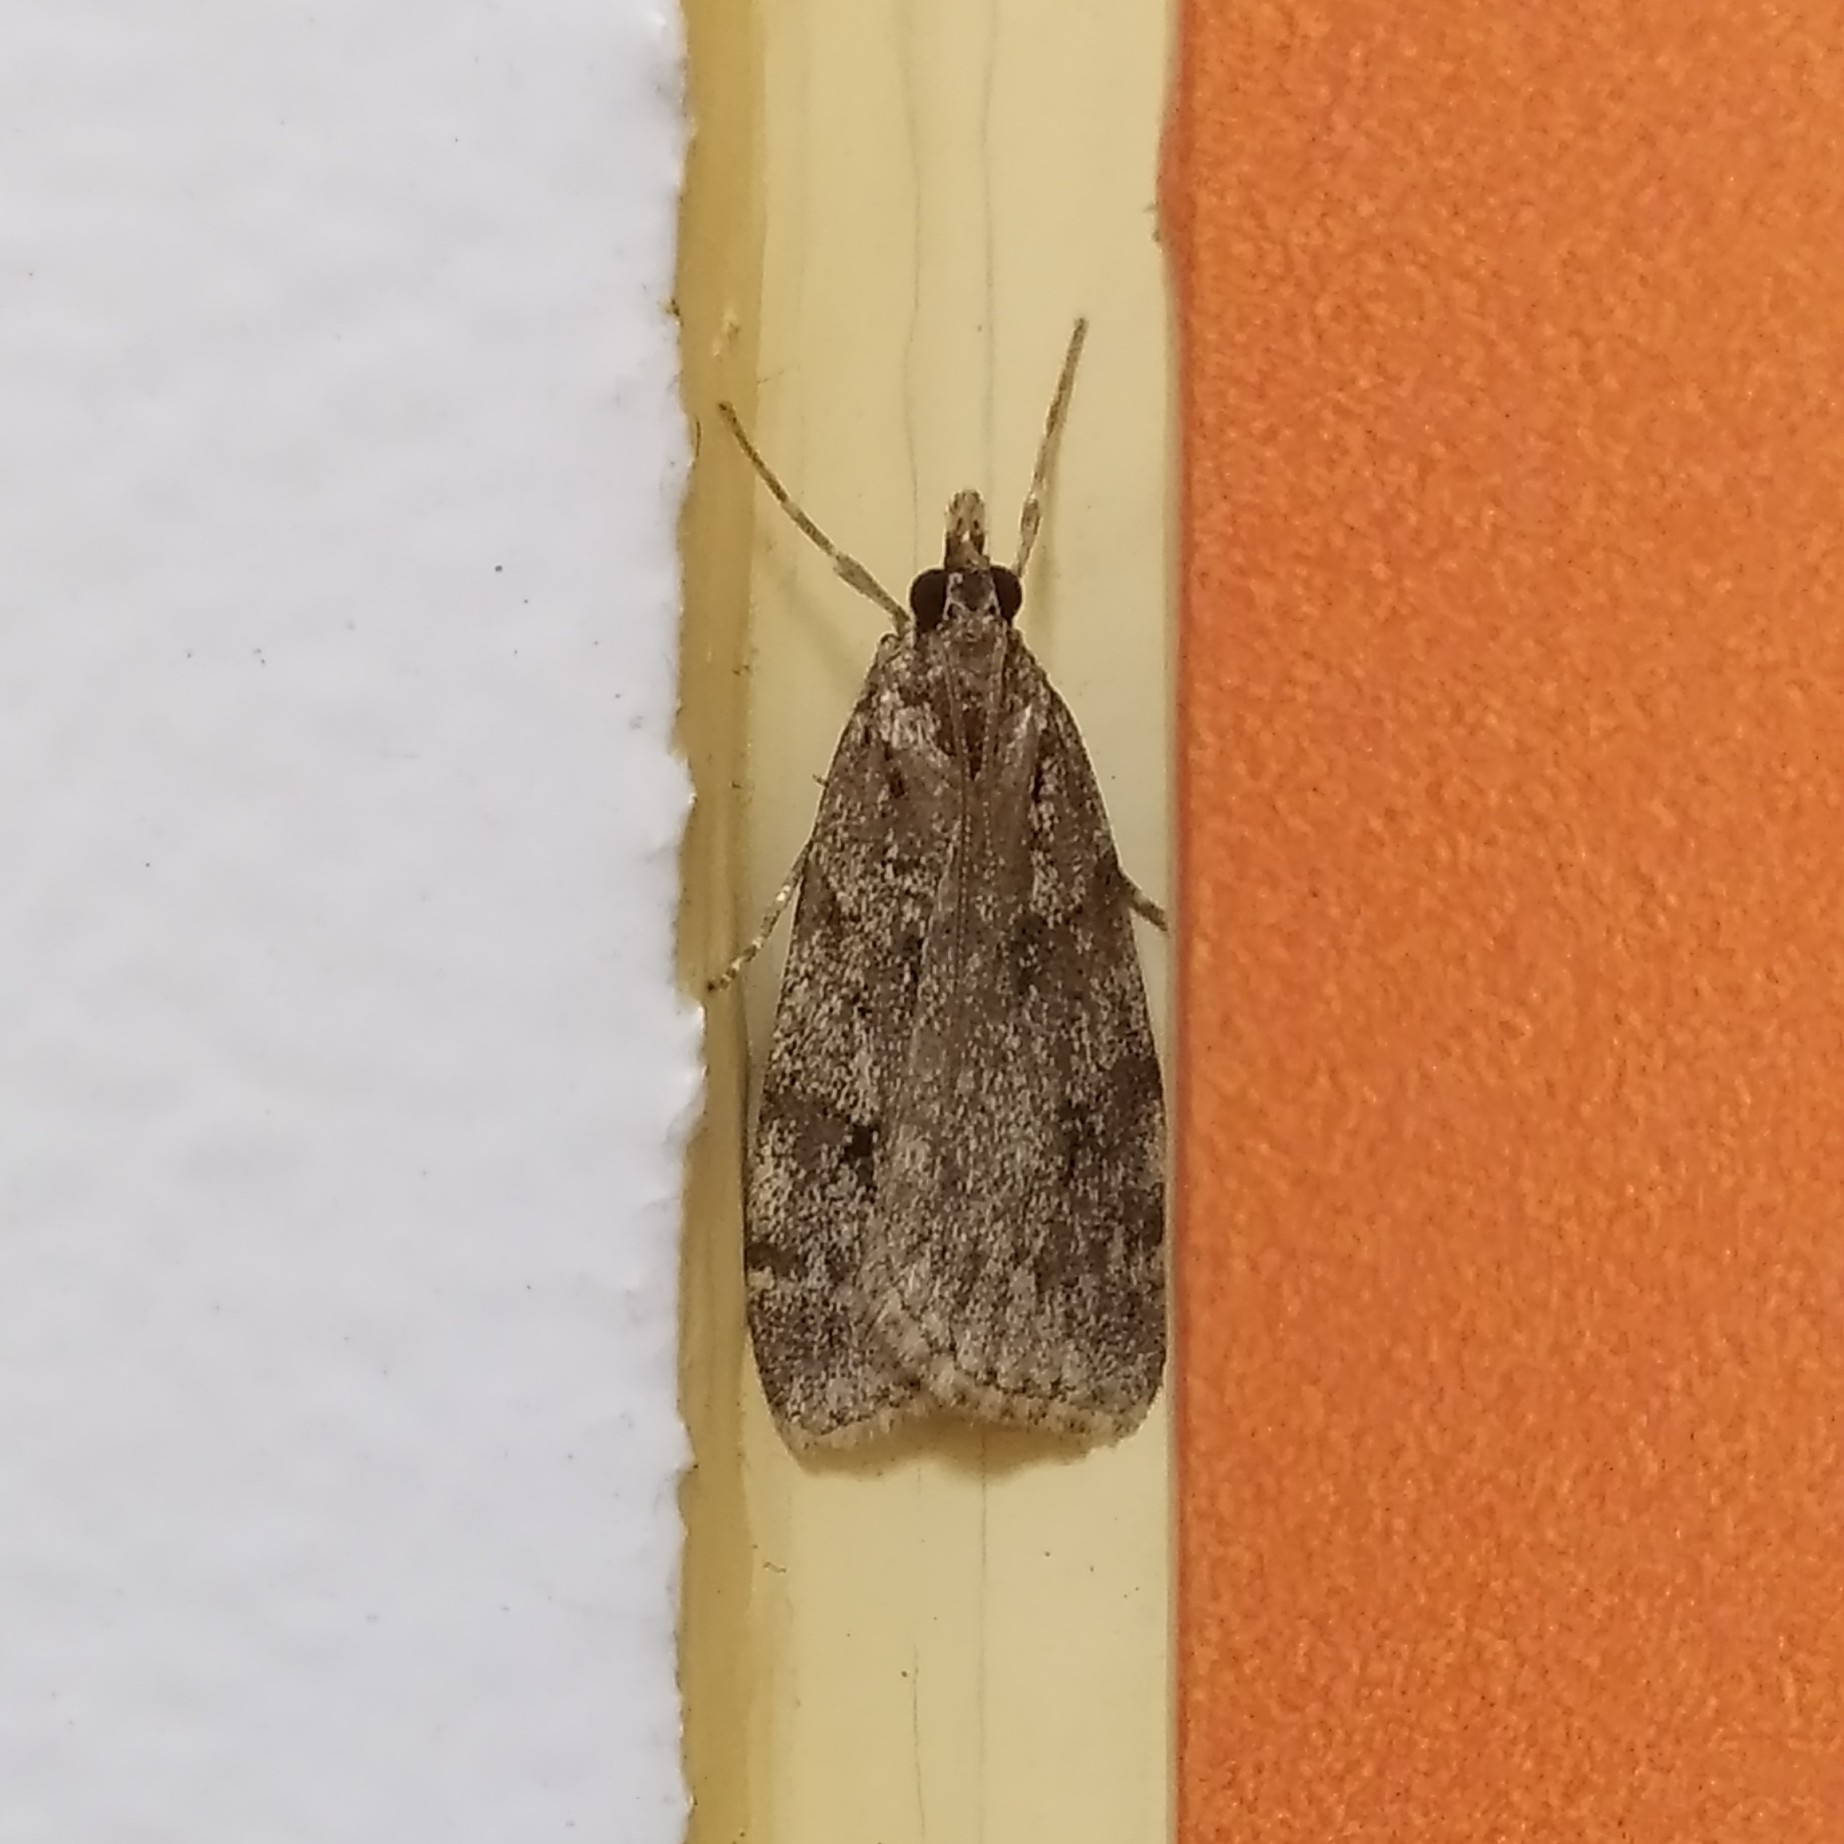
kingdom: Animalia
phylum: Arthropoda
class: Insecta
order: Lepidoptera
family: Crambidae
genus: Scoparia
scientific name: Scoparia ancipitella
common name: Northern grey
